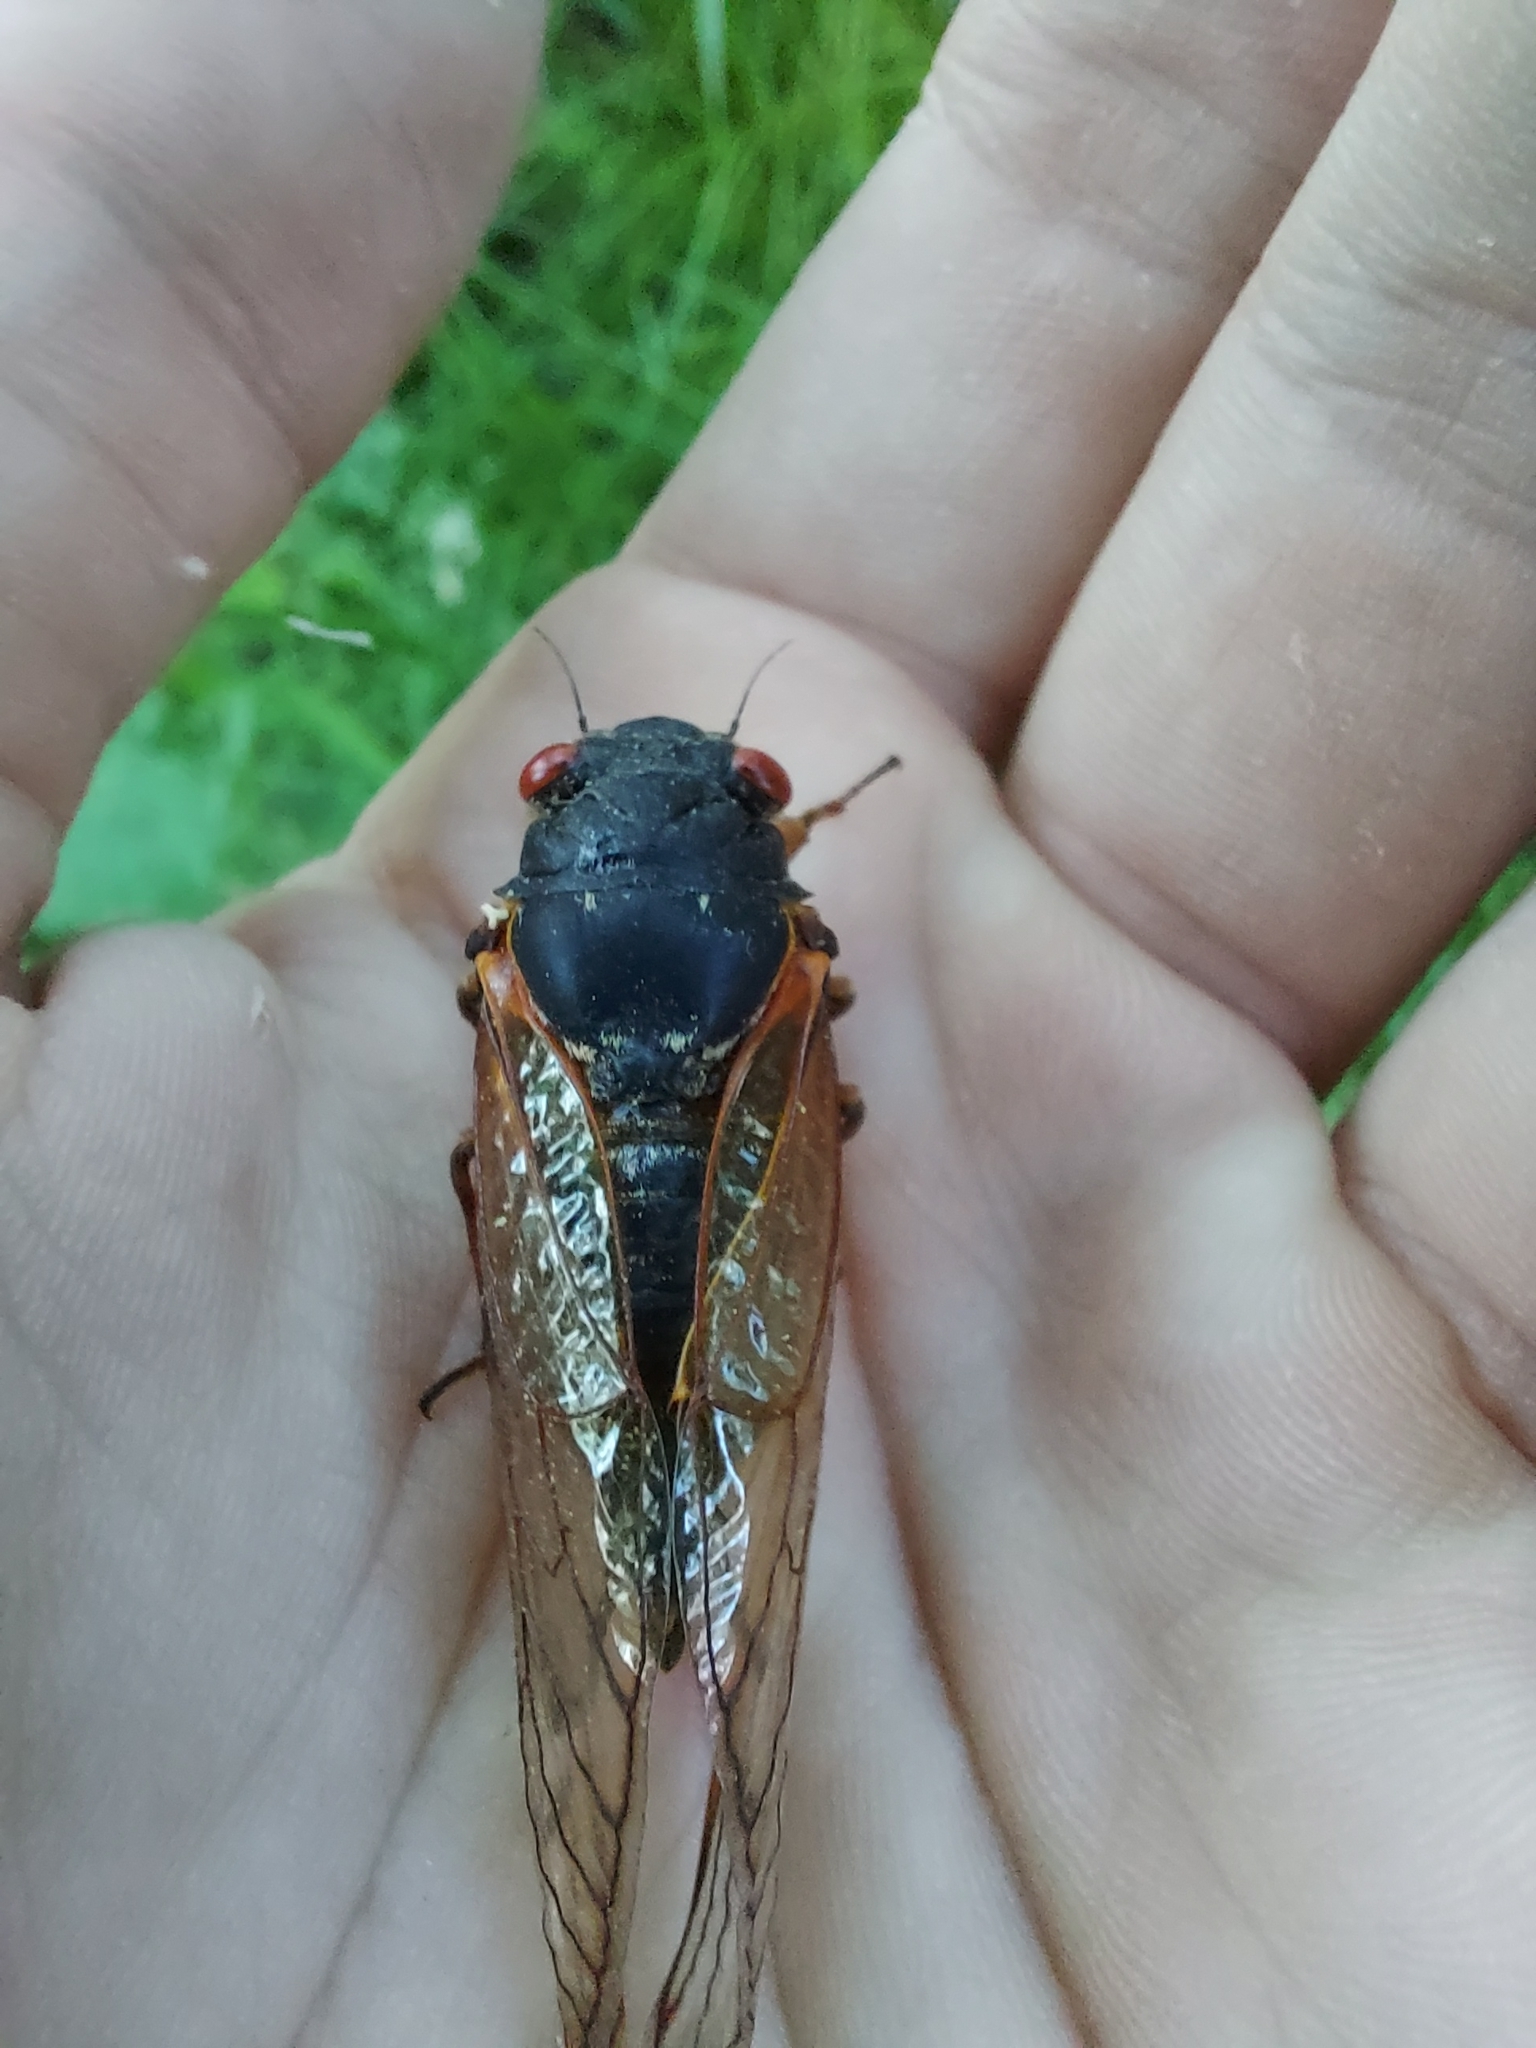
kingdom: Animalia
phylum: Arthropoda
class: Insecta
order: Hemiptera
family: Cicadidae
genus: Magicicada
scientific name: Magicicada septendecim
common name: Periodical cicada
